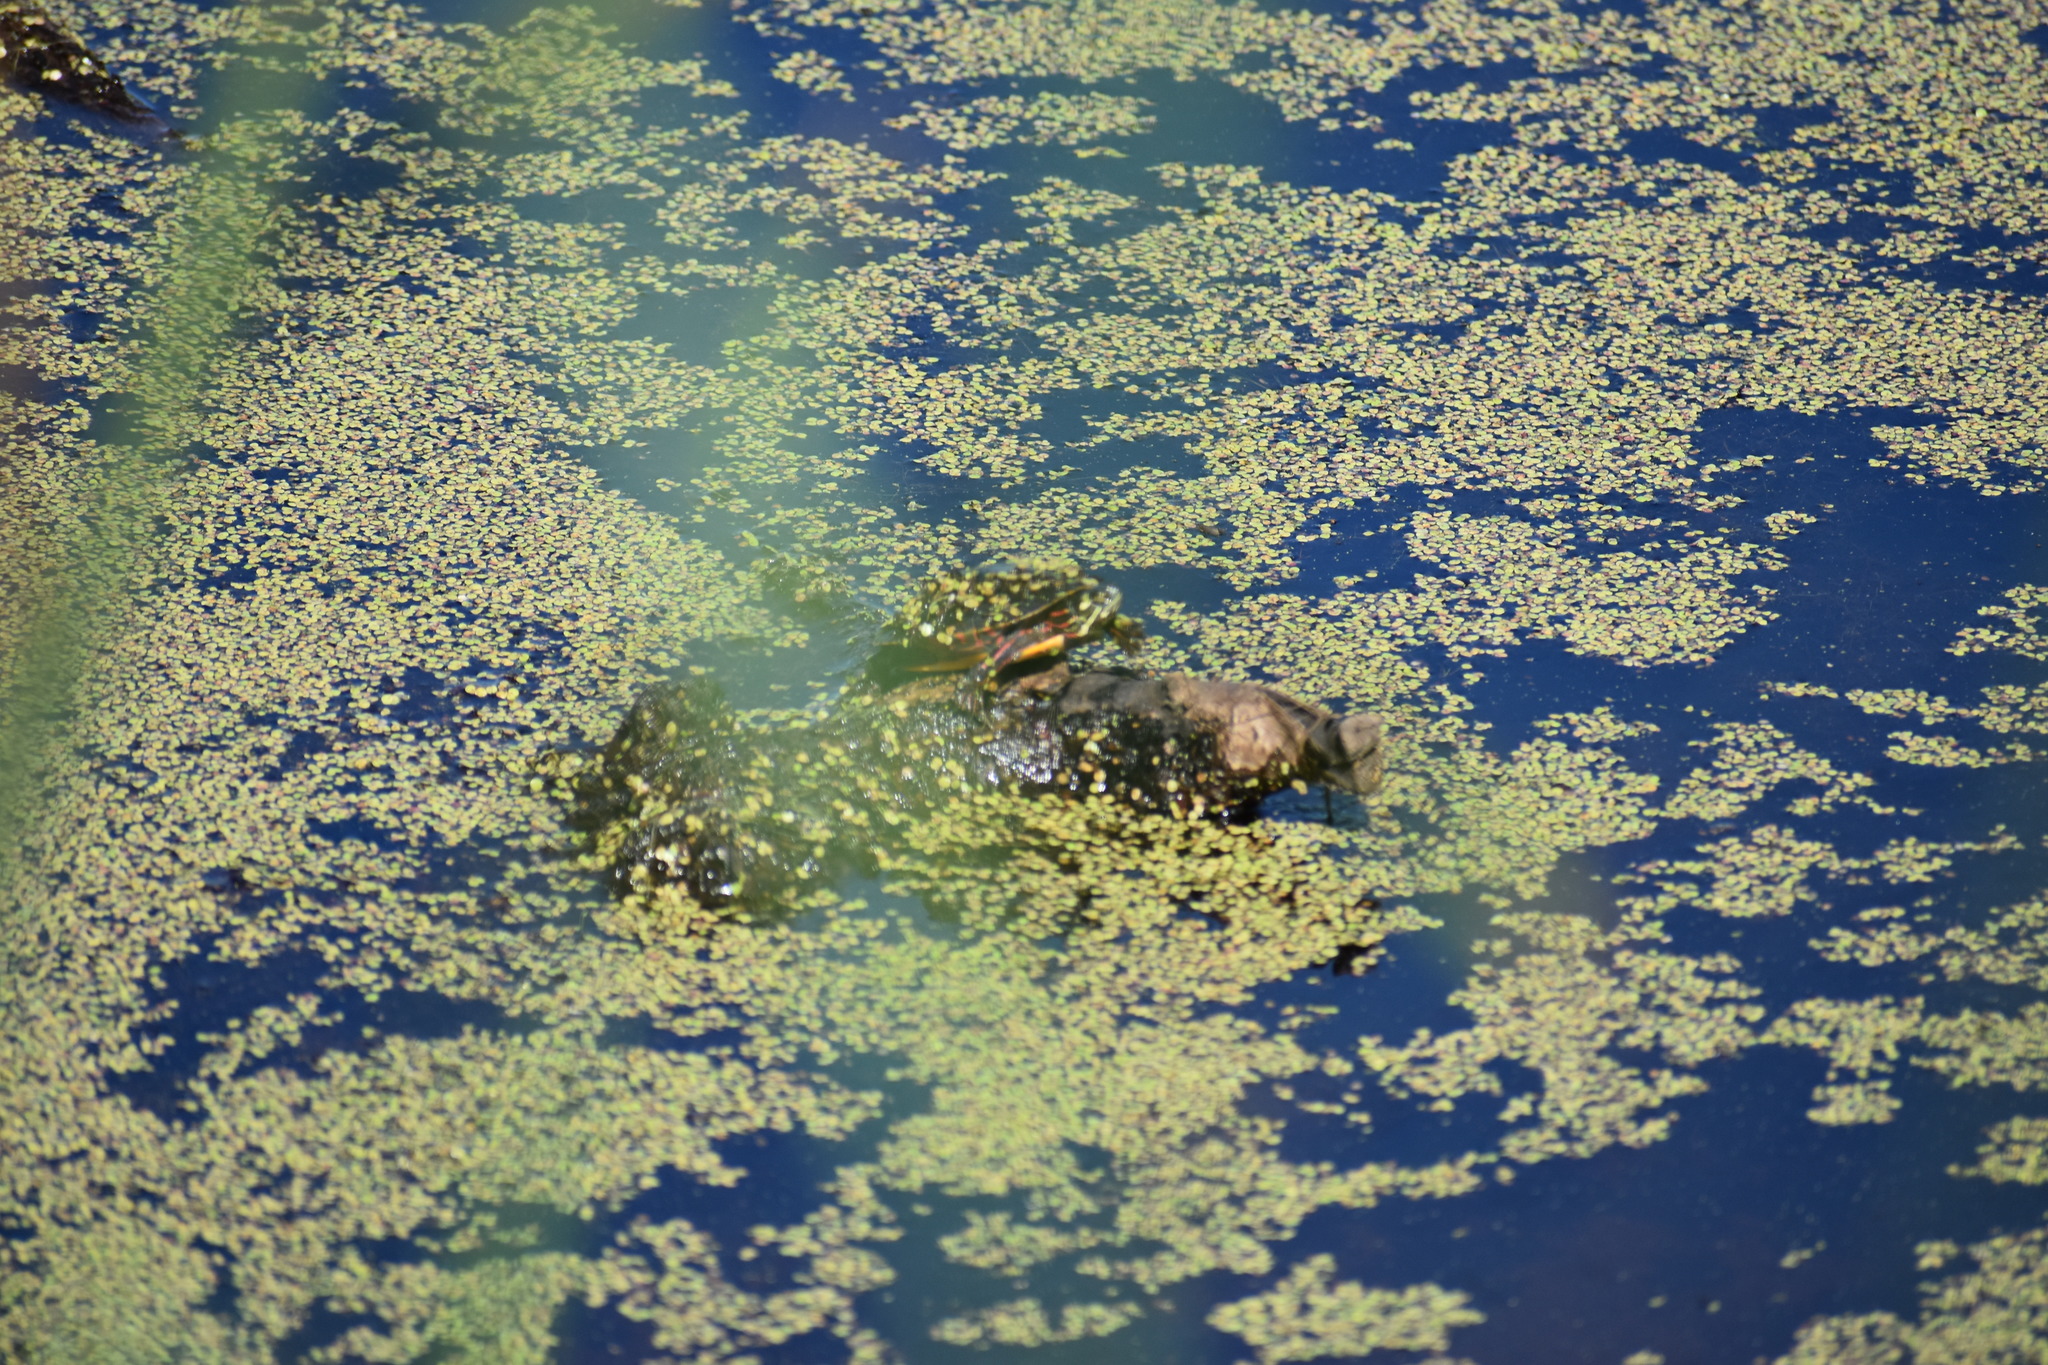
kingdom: Animalia
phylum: Chordata
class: Testudines
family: Emydidae
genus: Chrysemys
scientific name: Chrysemys picta
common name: Painted turtle
